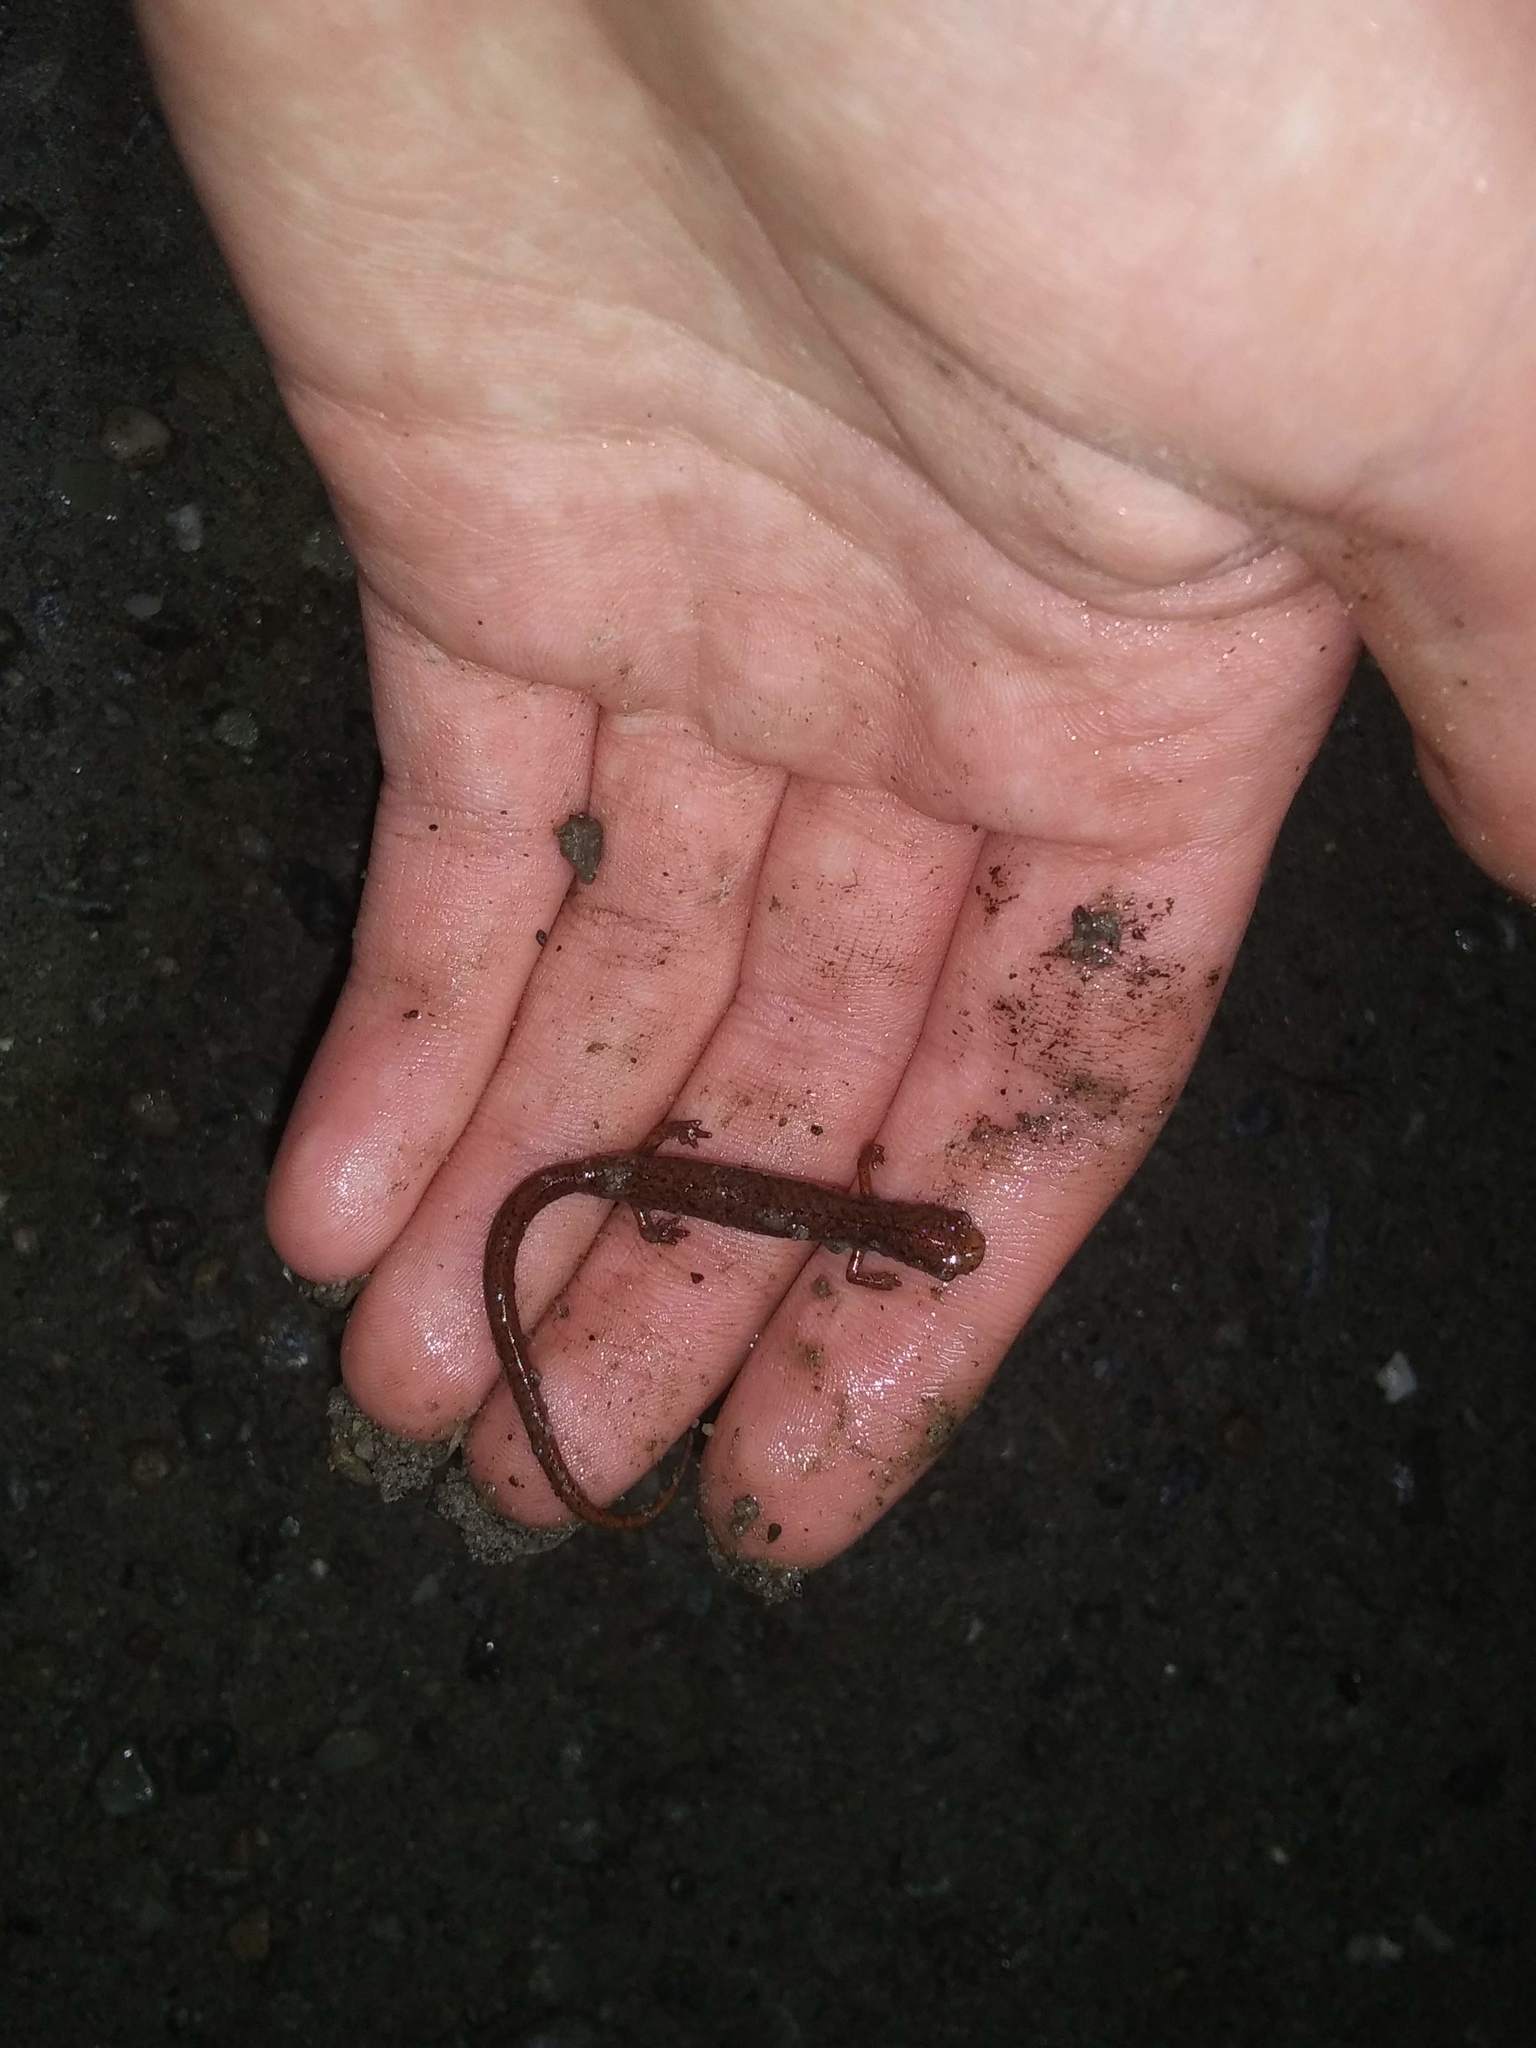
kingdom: Animalia
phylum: Chordata
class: Amphibia
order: Caudata
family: Plethodontidae
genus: Hemidactylium
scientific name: Hemidactylium scutatum
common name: Four-toed salamander
